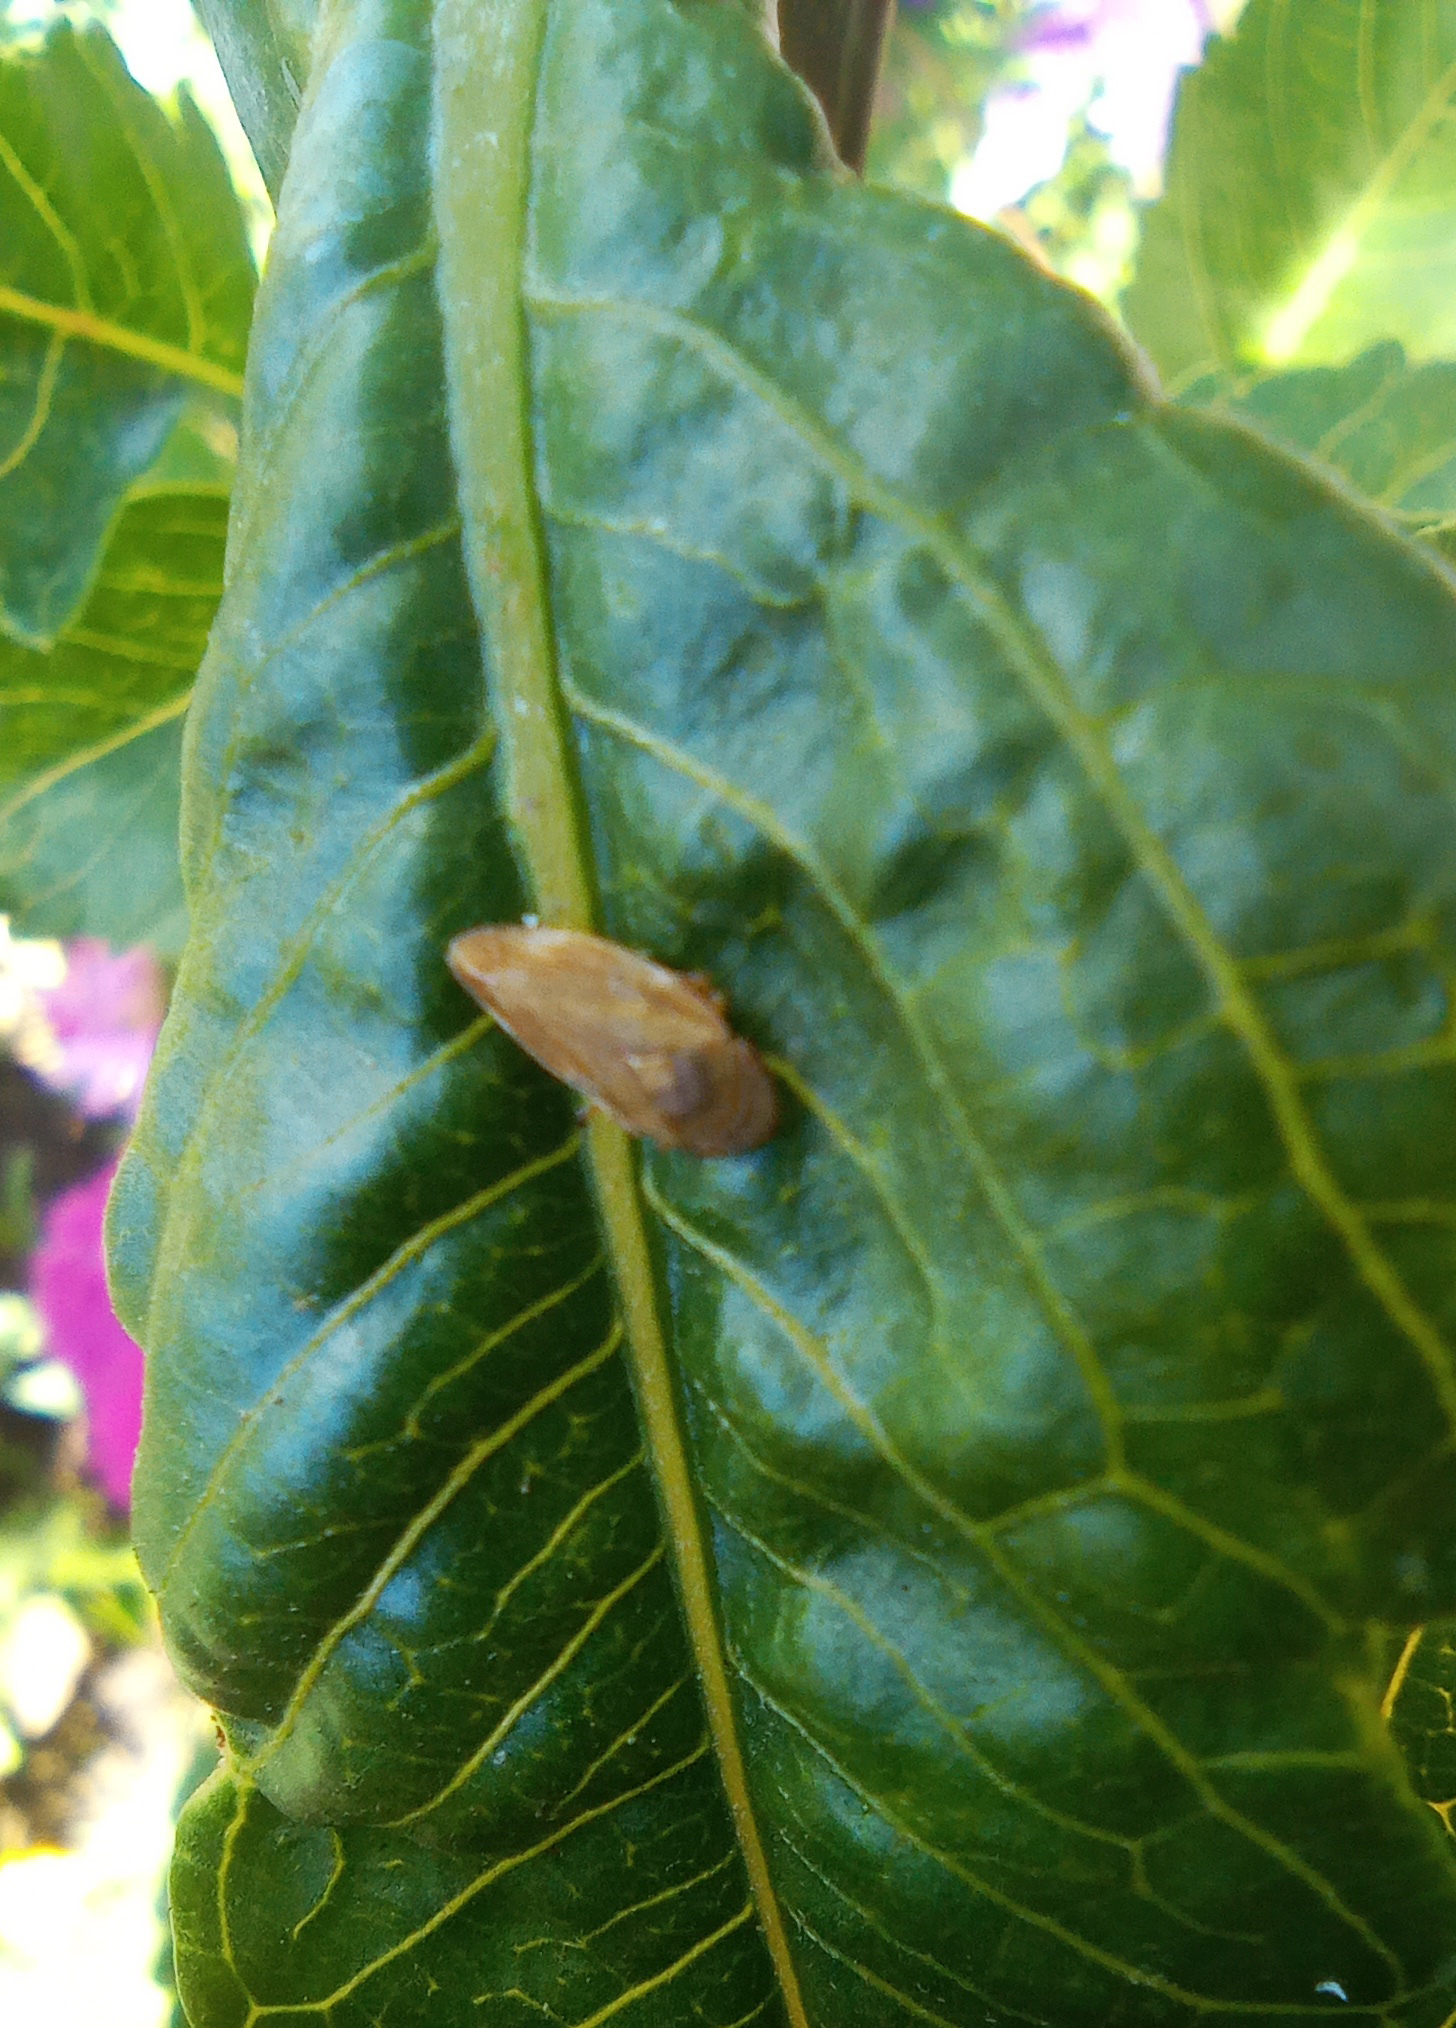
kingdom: Animalia
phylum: Arthropoda
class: Insecta
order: Hemiptera
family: Aphrophoridae
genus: Philaenus
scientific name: Philaenus spumarius
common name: Meadow spittlebug
